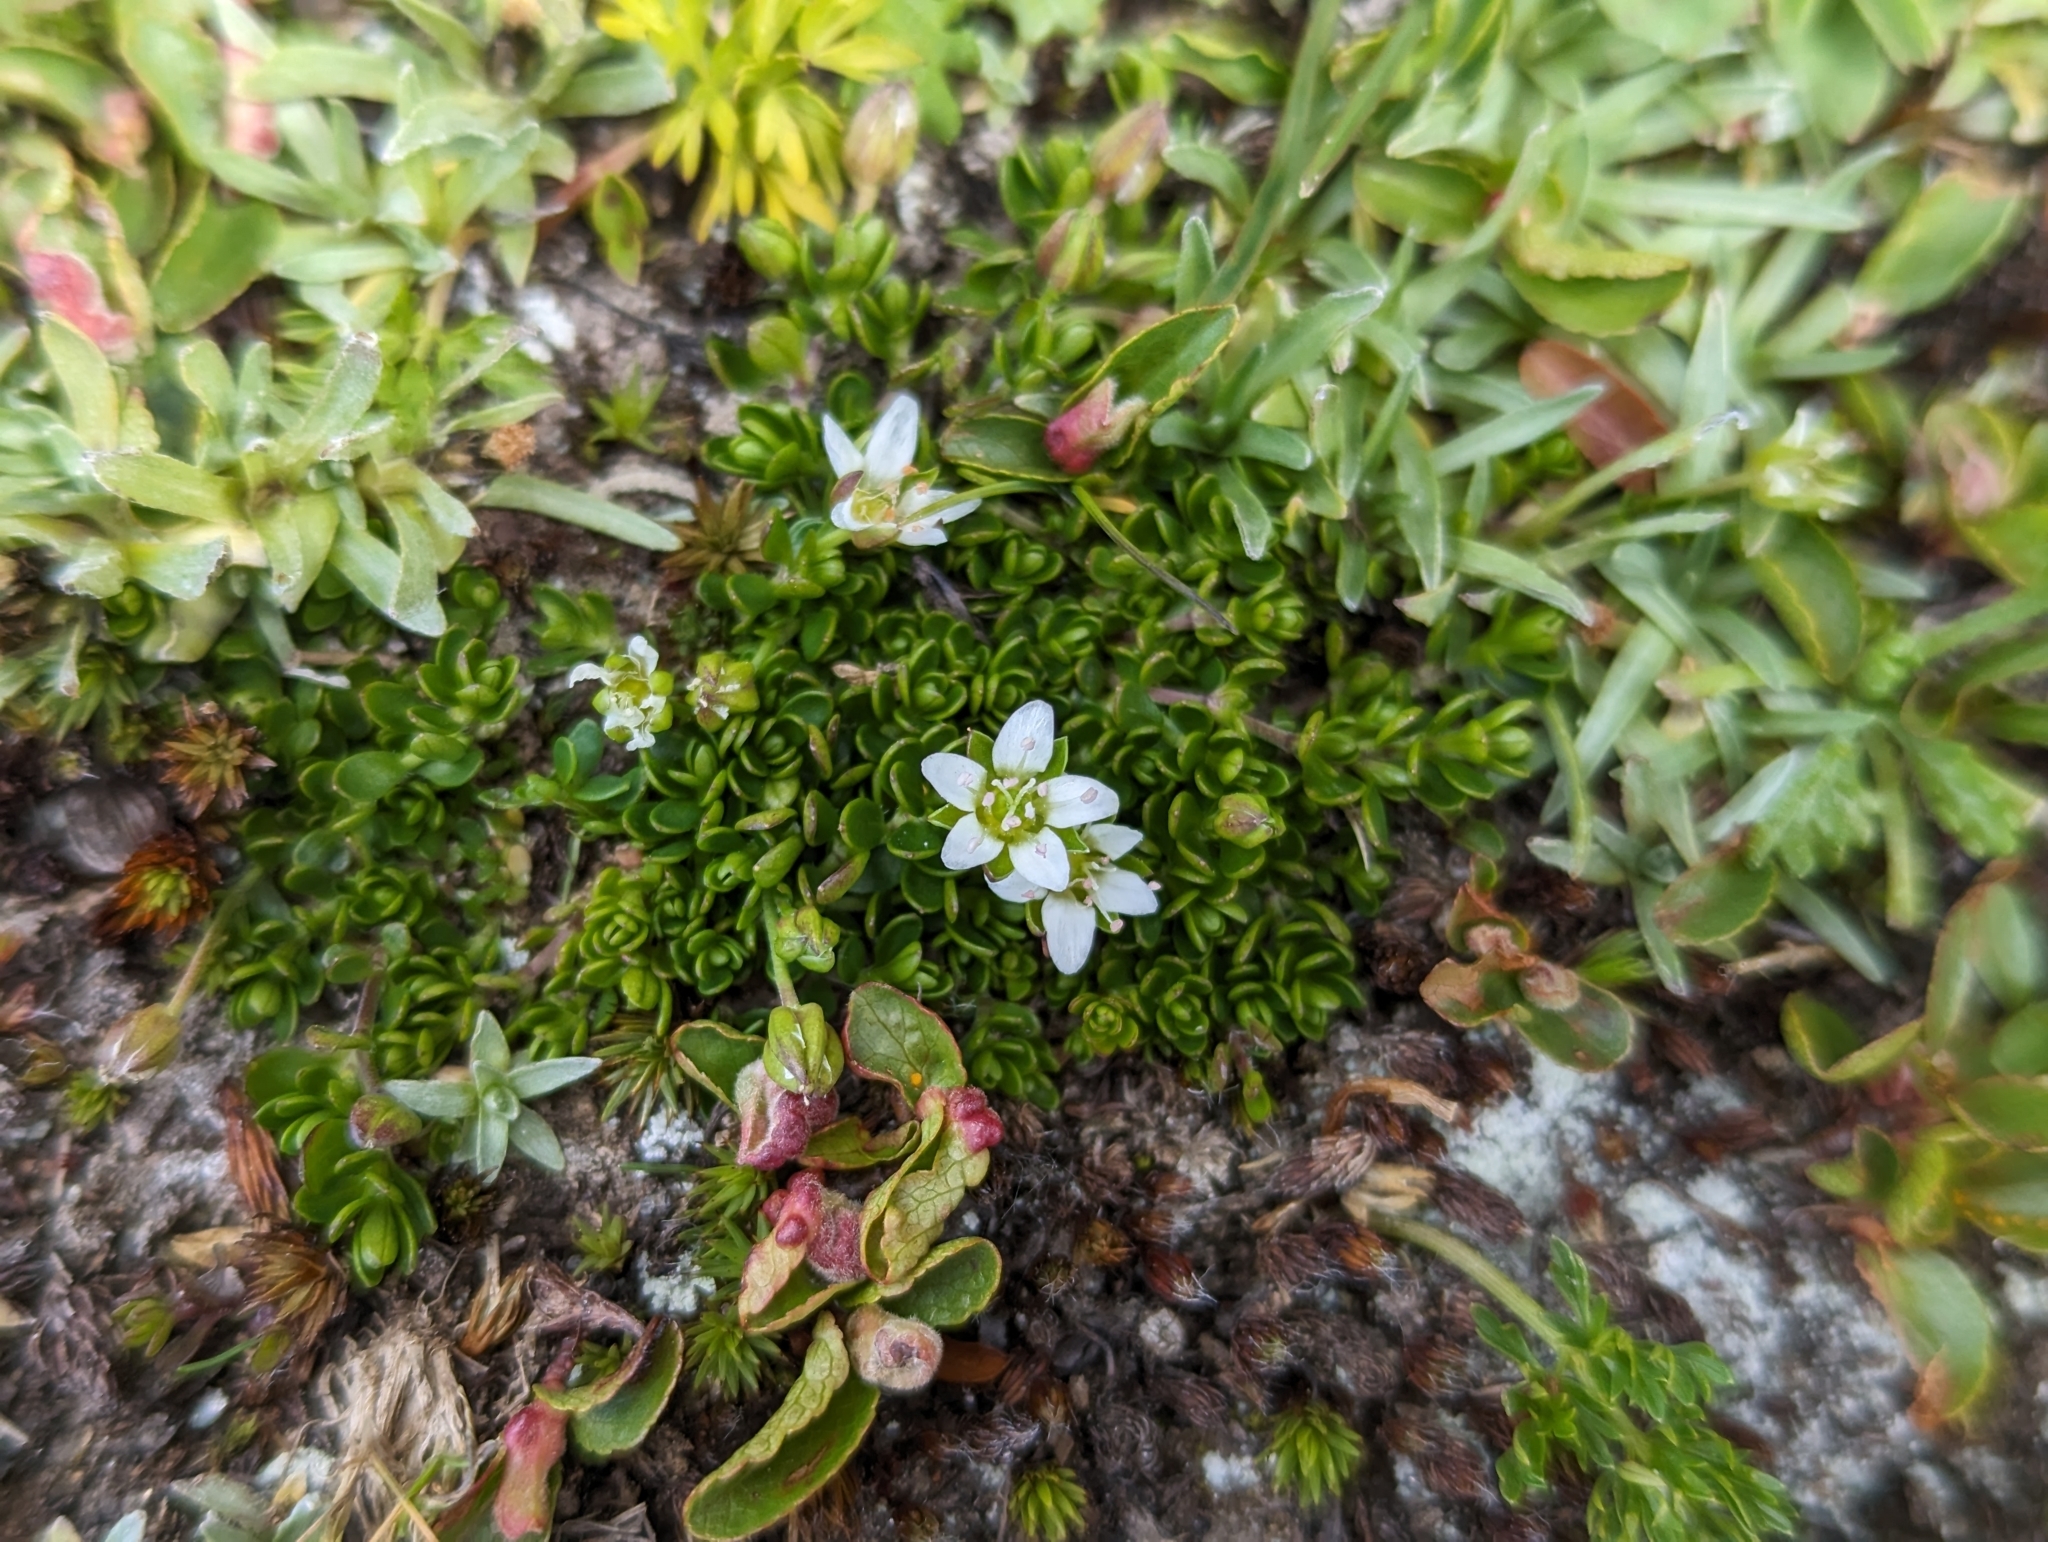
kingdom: Plantae
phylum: Tracheophyta
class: Magnoliopsida
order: Caryophyllales
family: Caryophyllaceae
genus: Arenaria
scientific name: Arenaria biflora
